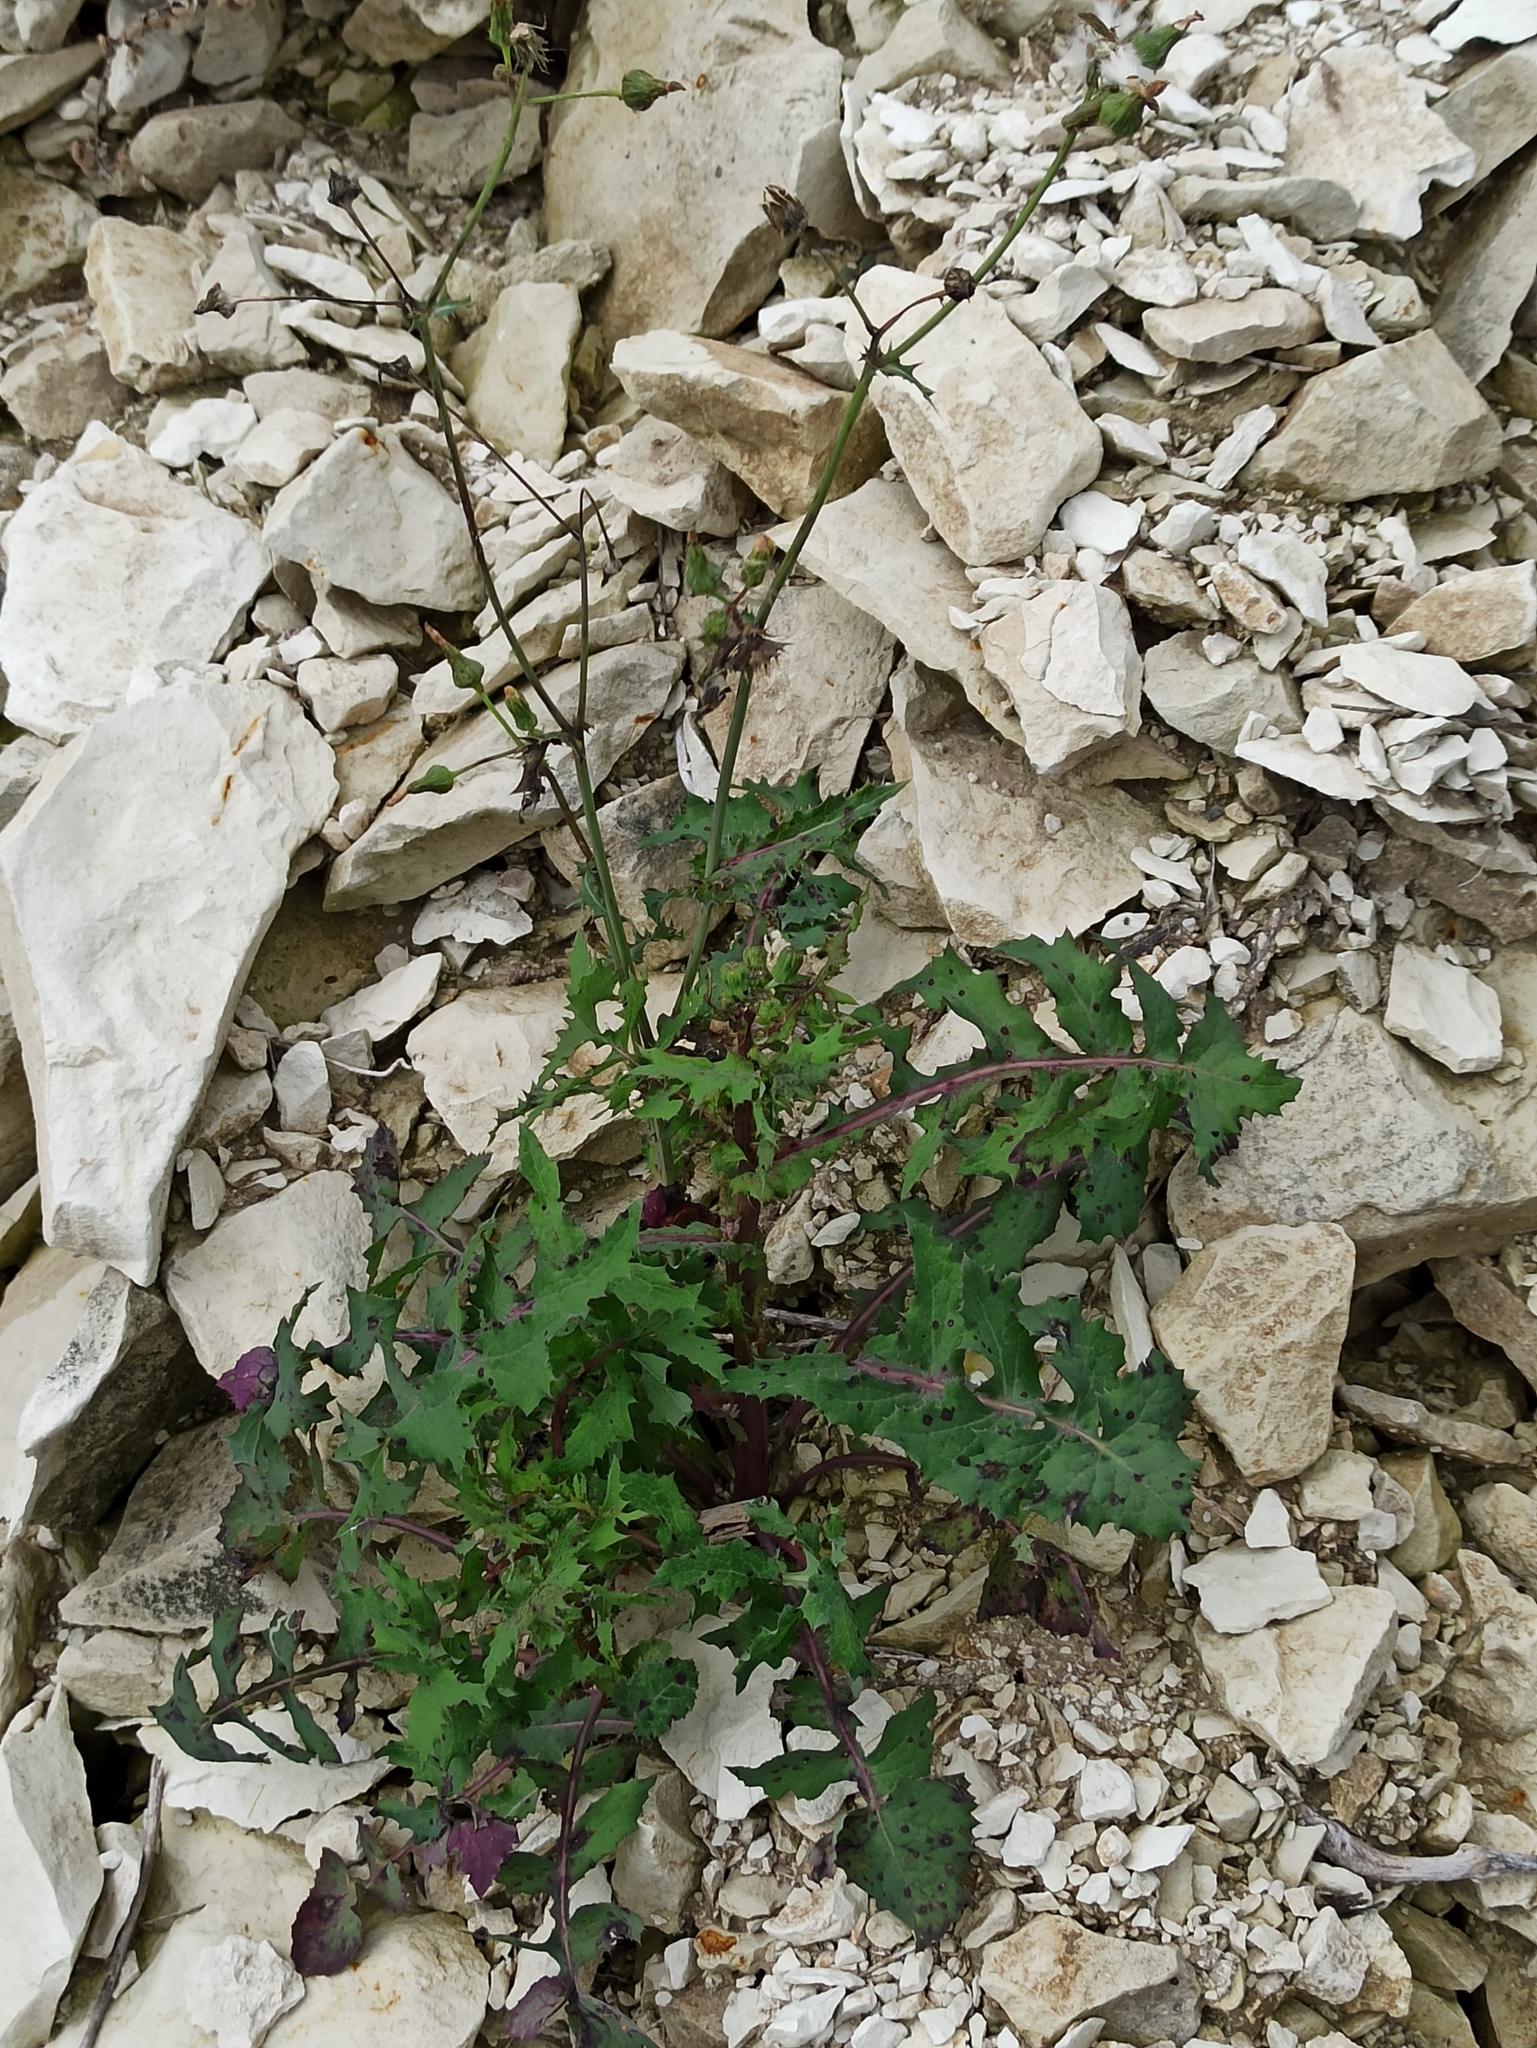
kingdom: Plantae
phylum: Tracheophyta
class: Magnoliopsida
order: Asterales
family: Asteraceae
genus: Sonchus
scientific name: Sonchus oleraceus
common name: Common sowthistle
